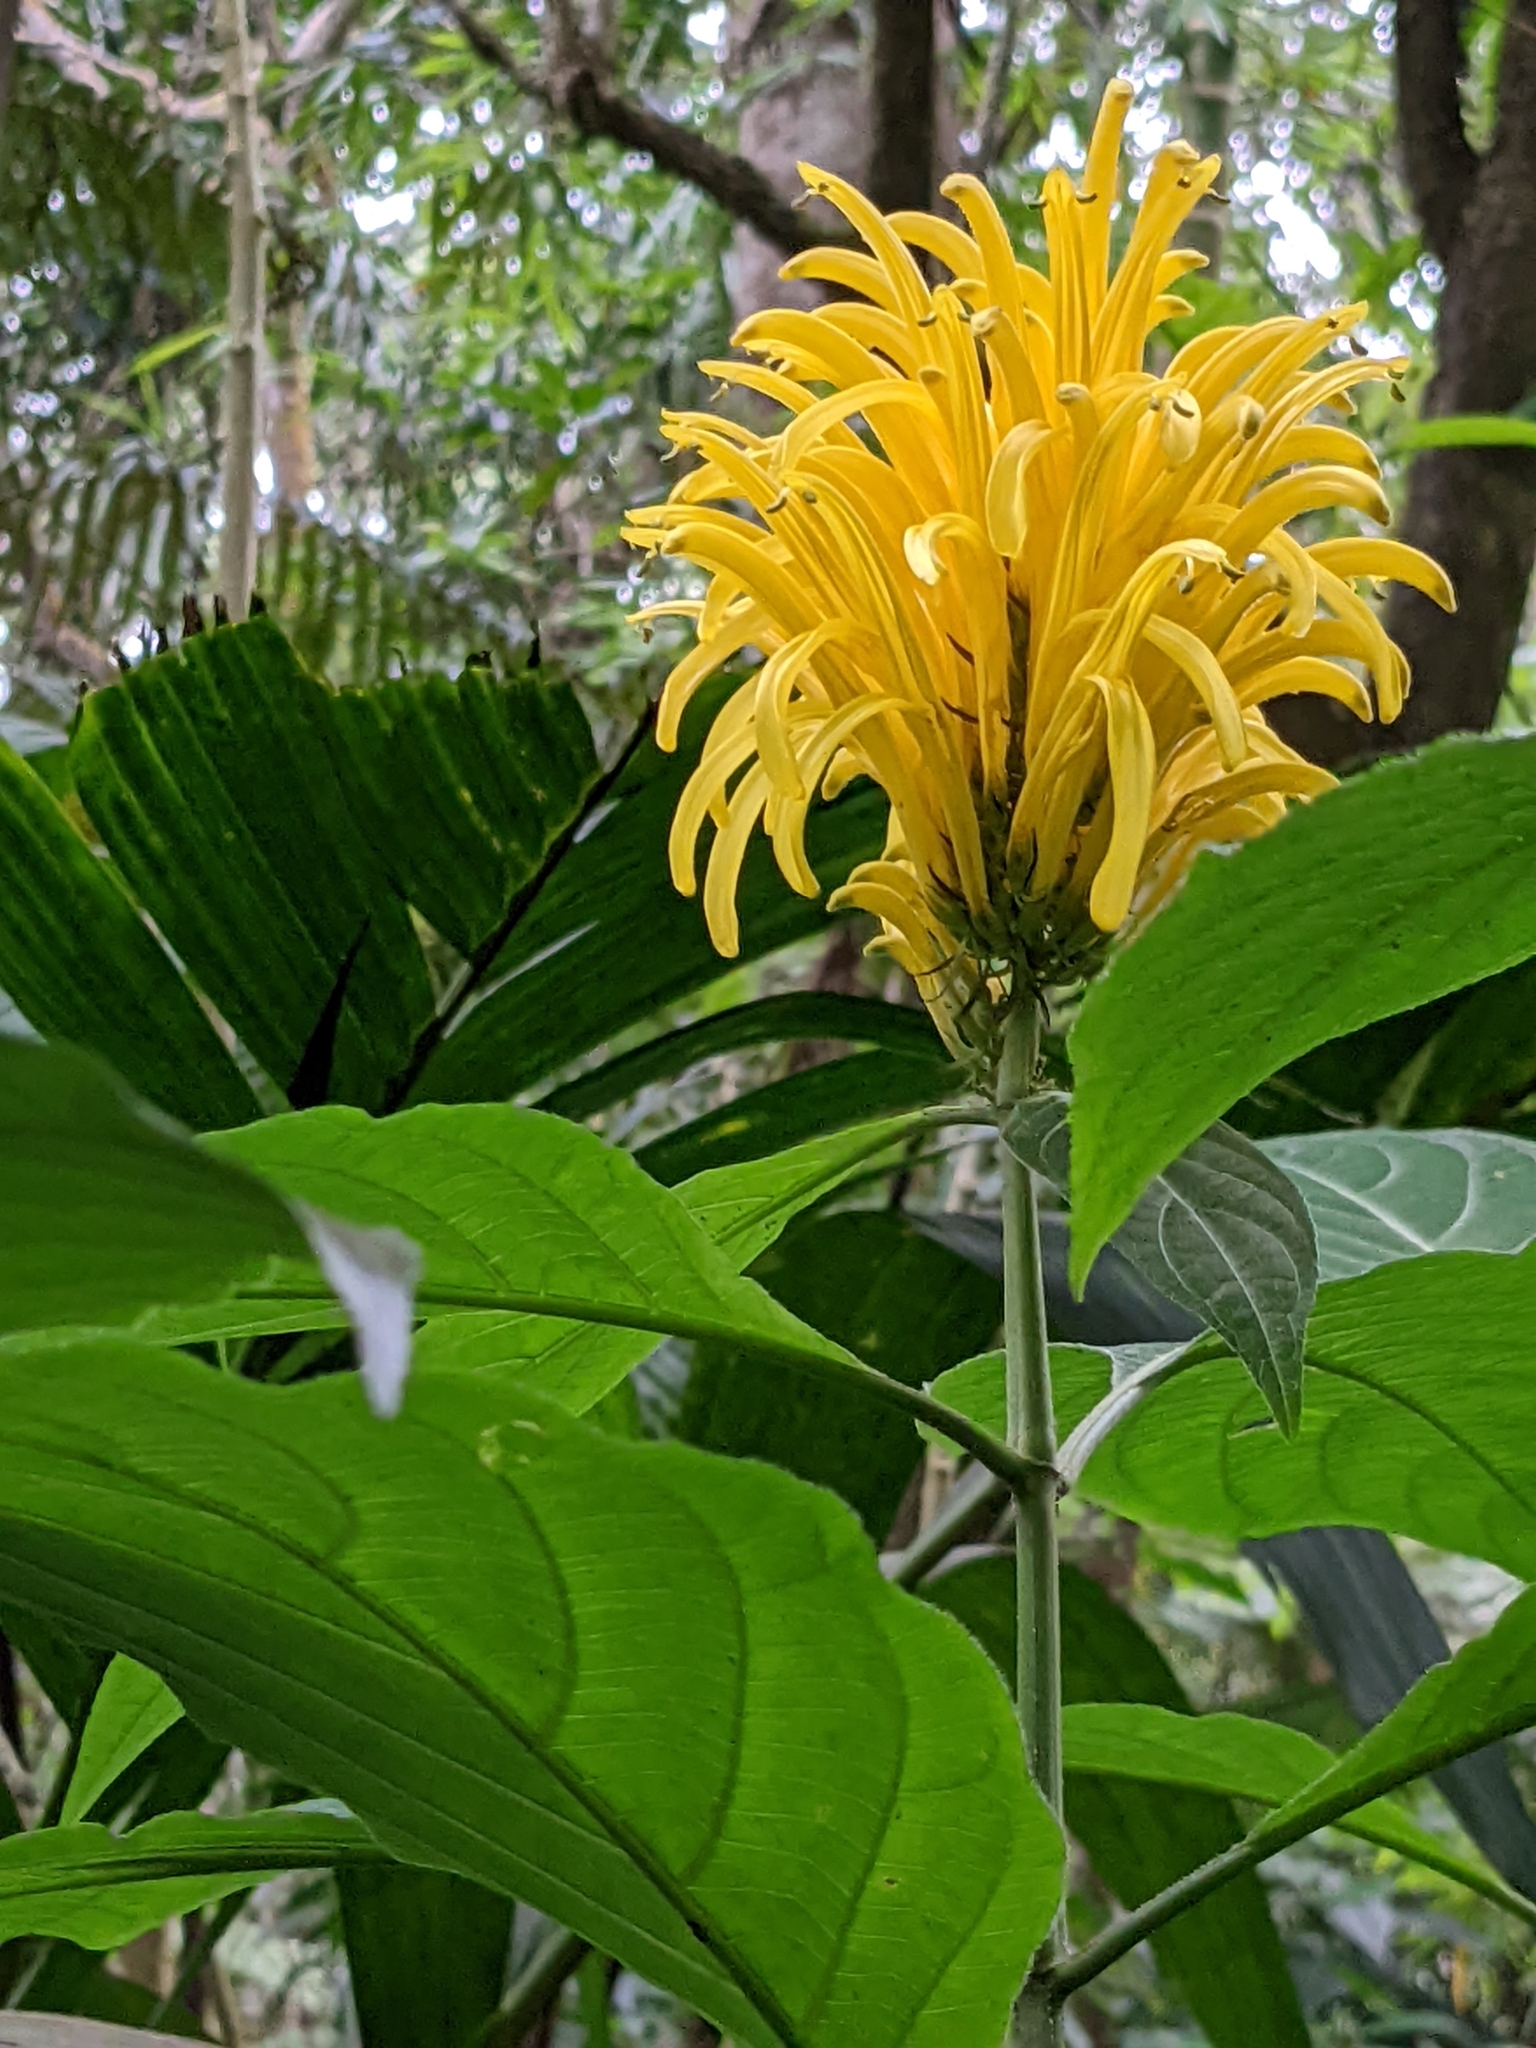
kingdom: Plantae
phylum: Tracheophyta
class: Magnoliopsida
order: Lamiales
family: Acanthaceae
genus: Justicia
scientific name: Justicia aurea
